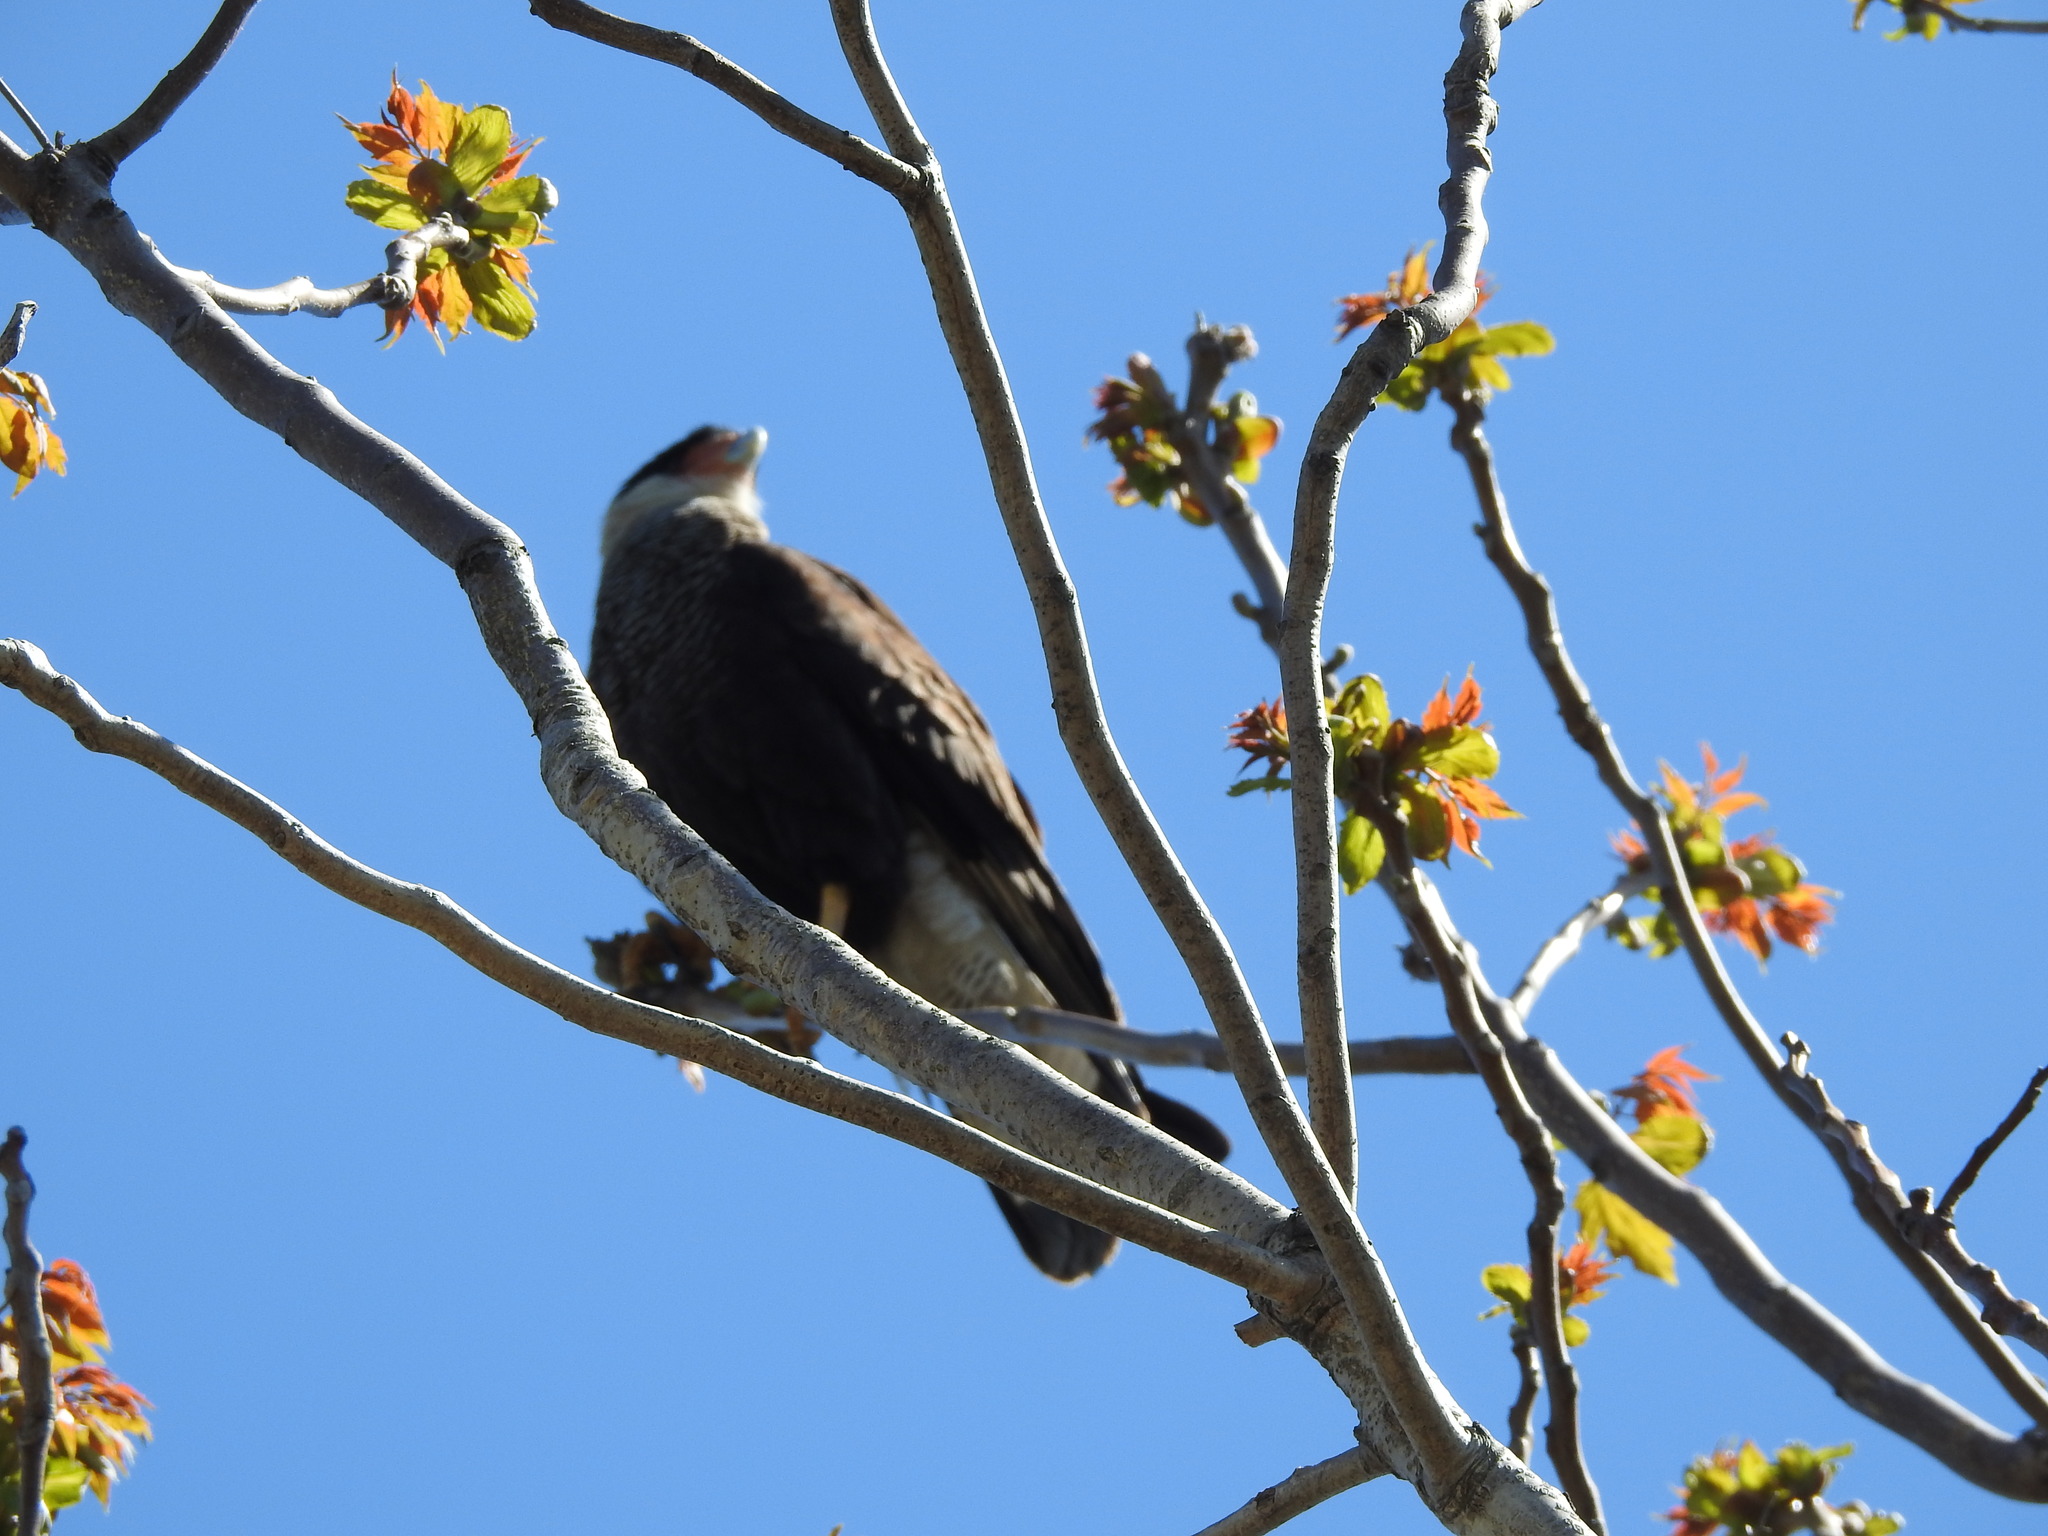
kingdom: Animalia
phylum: Chordata
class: Aves
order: Falconiformes
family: Falconidae
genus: Caracara
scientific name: Caracara plancus
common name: Southern caracara
